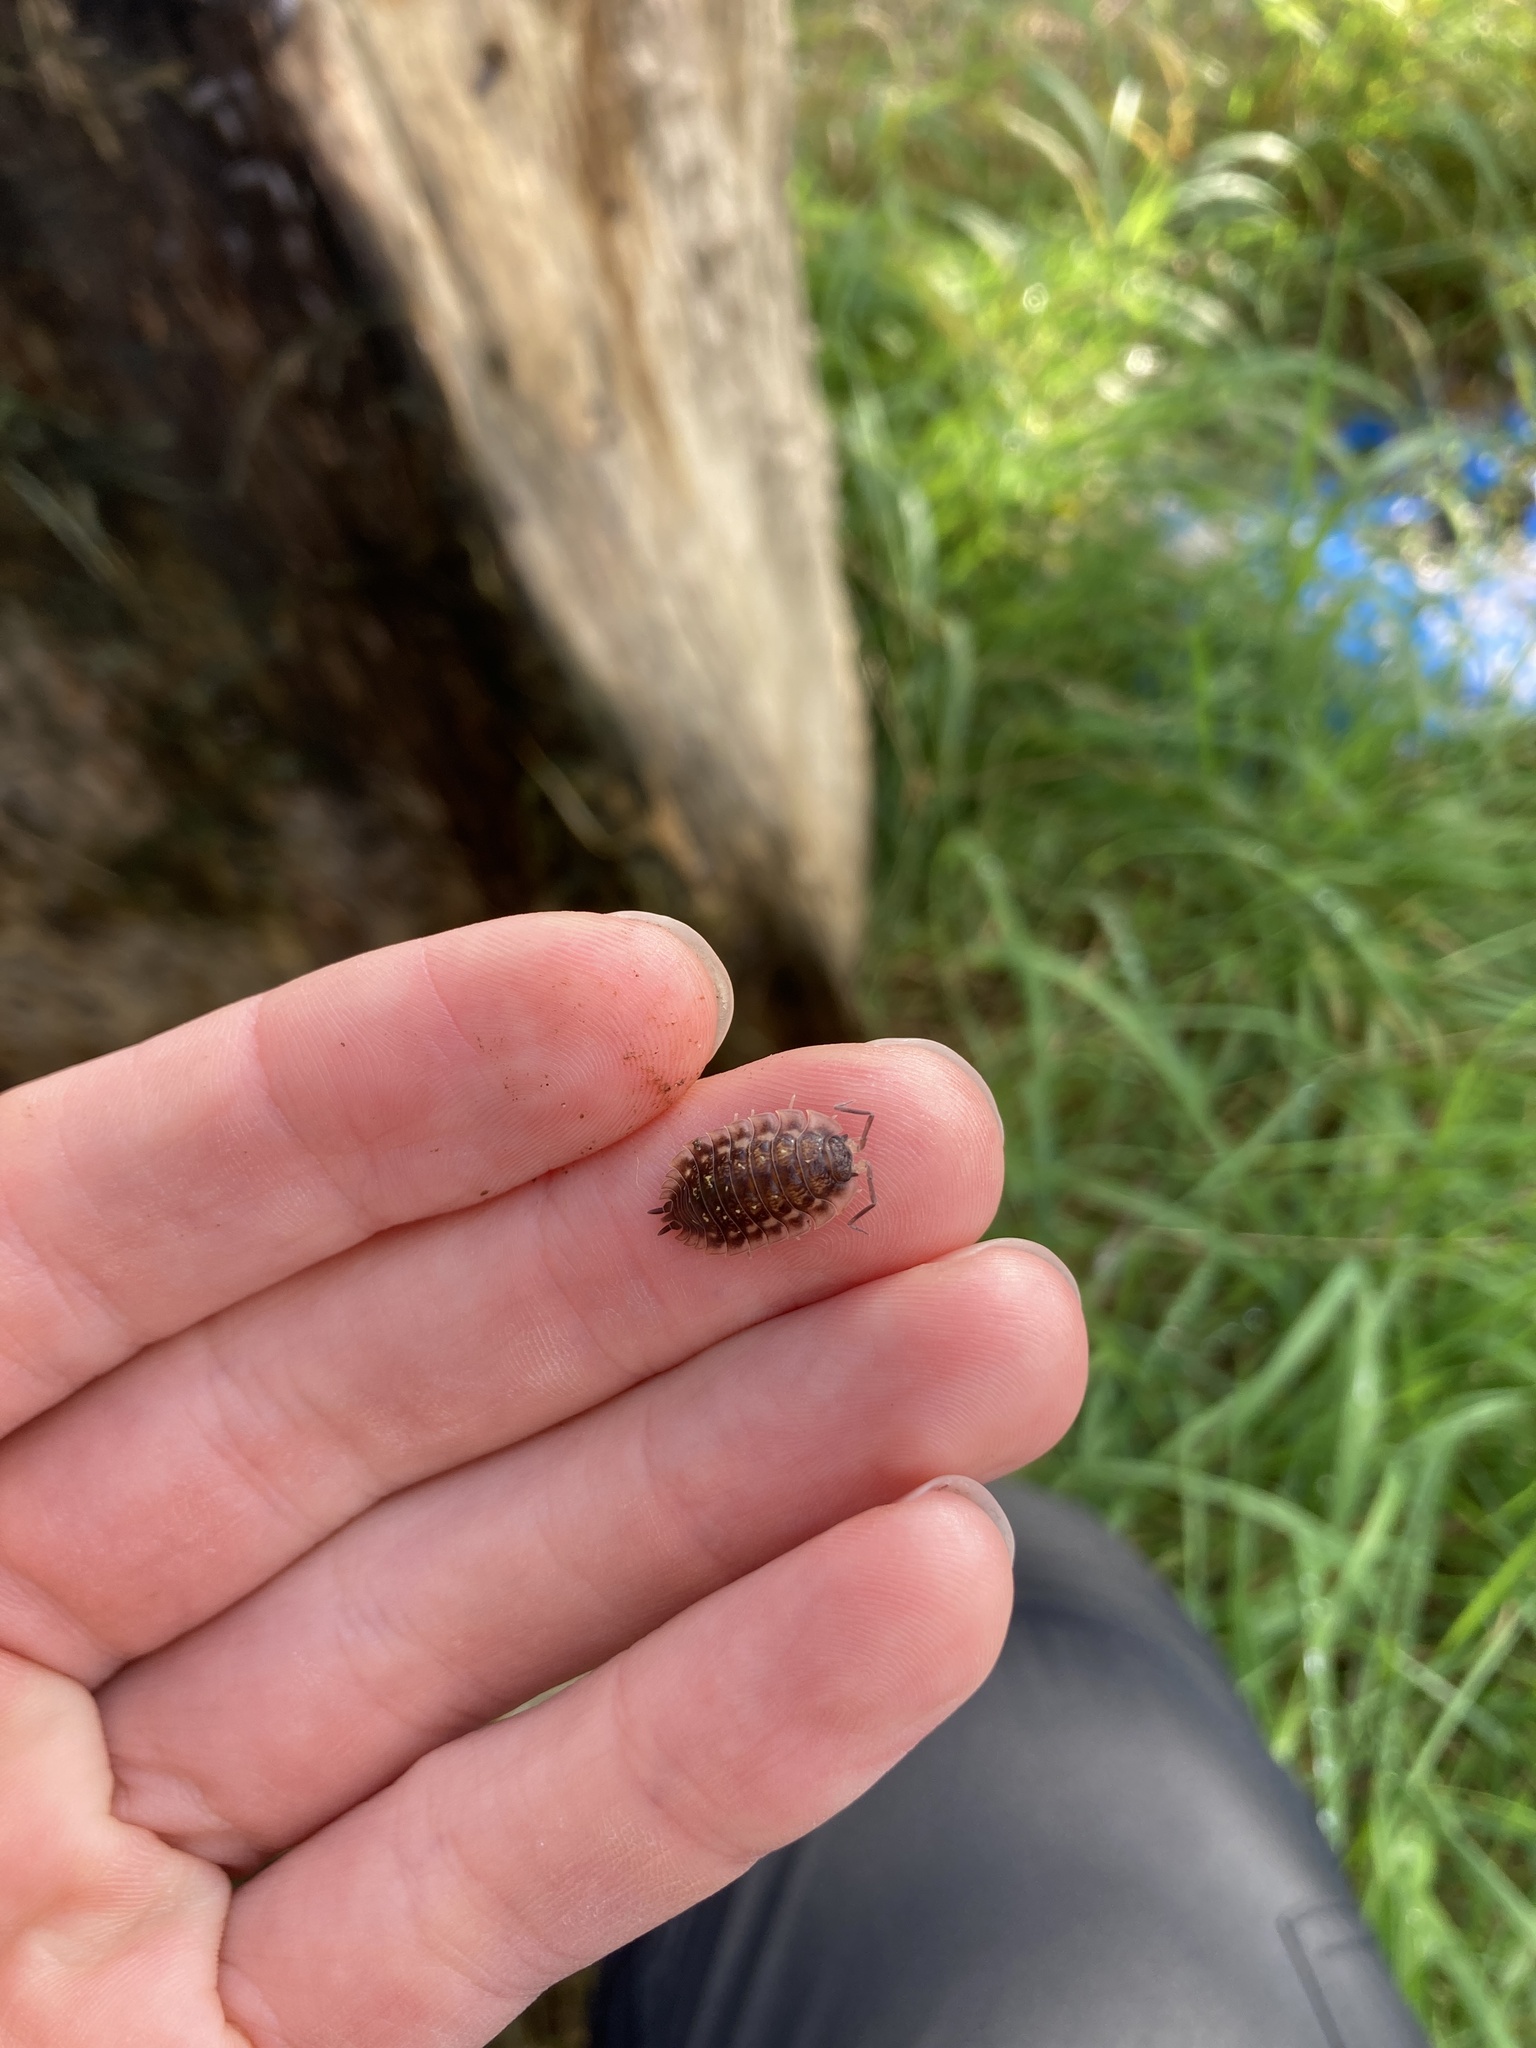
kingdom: Animalia
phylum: Arthropoda
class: Malacostraca
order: Isopoda
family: Oniscidae
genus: Oniscus
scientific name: Oniscus asellus
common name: Common shiny woodlouse
